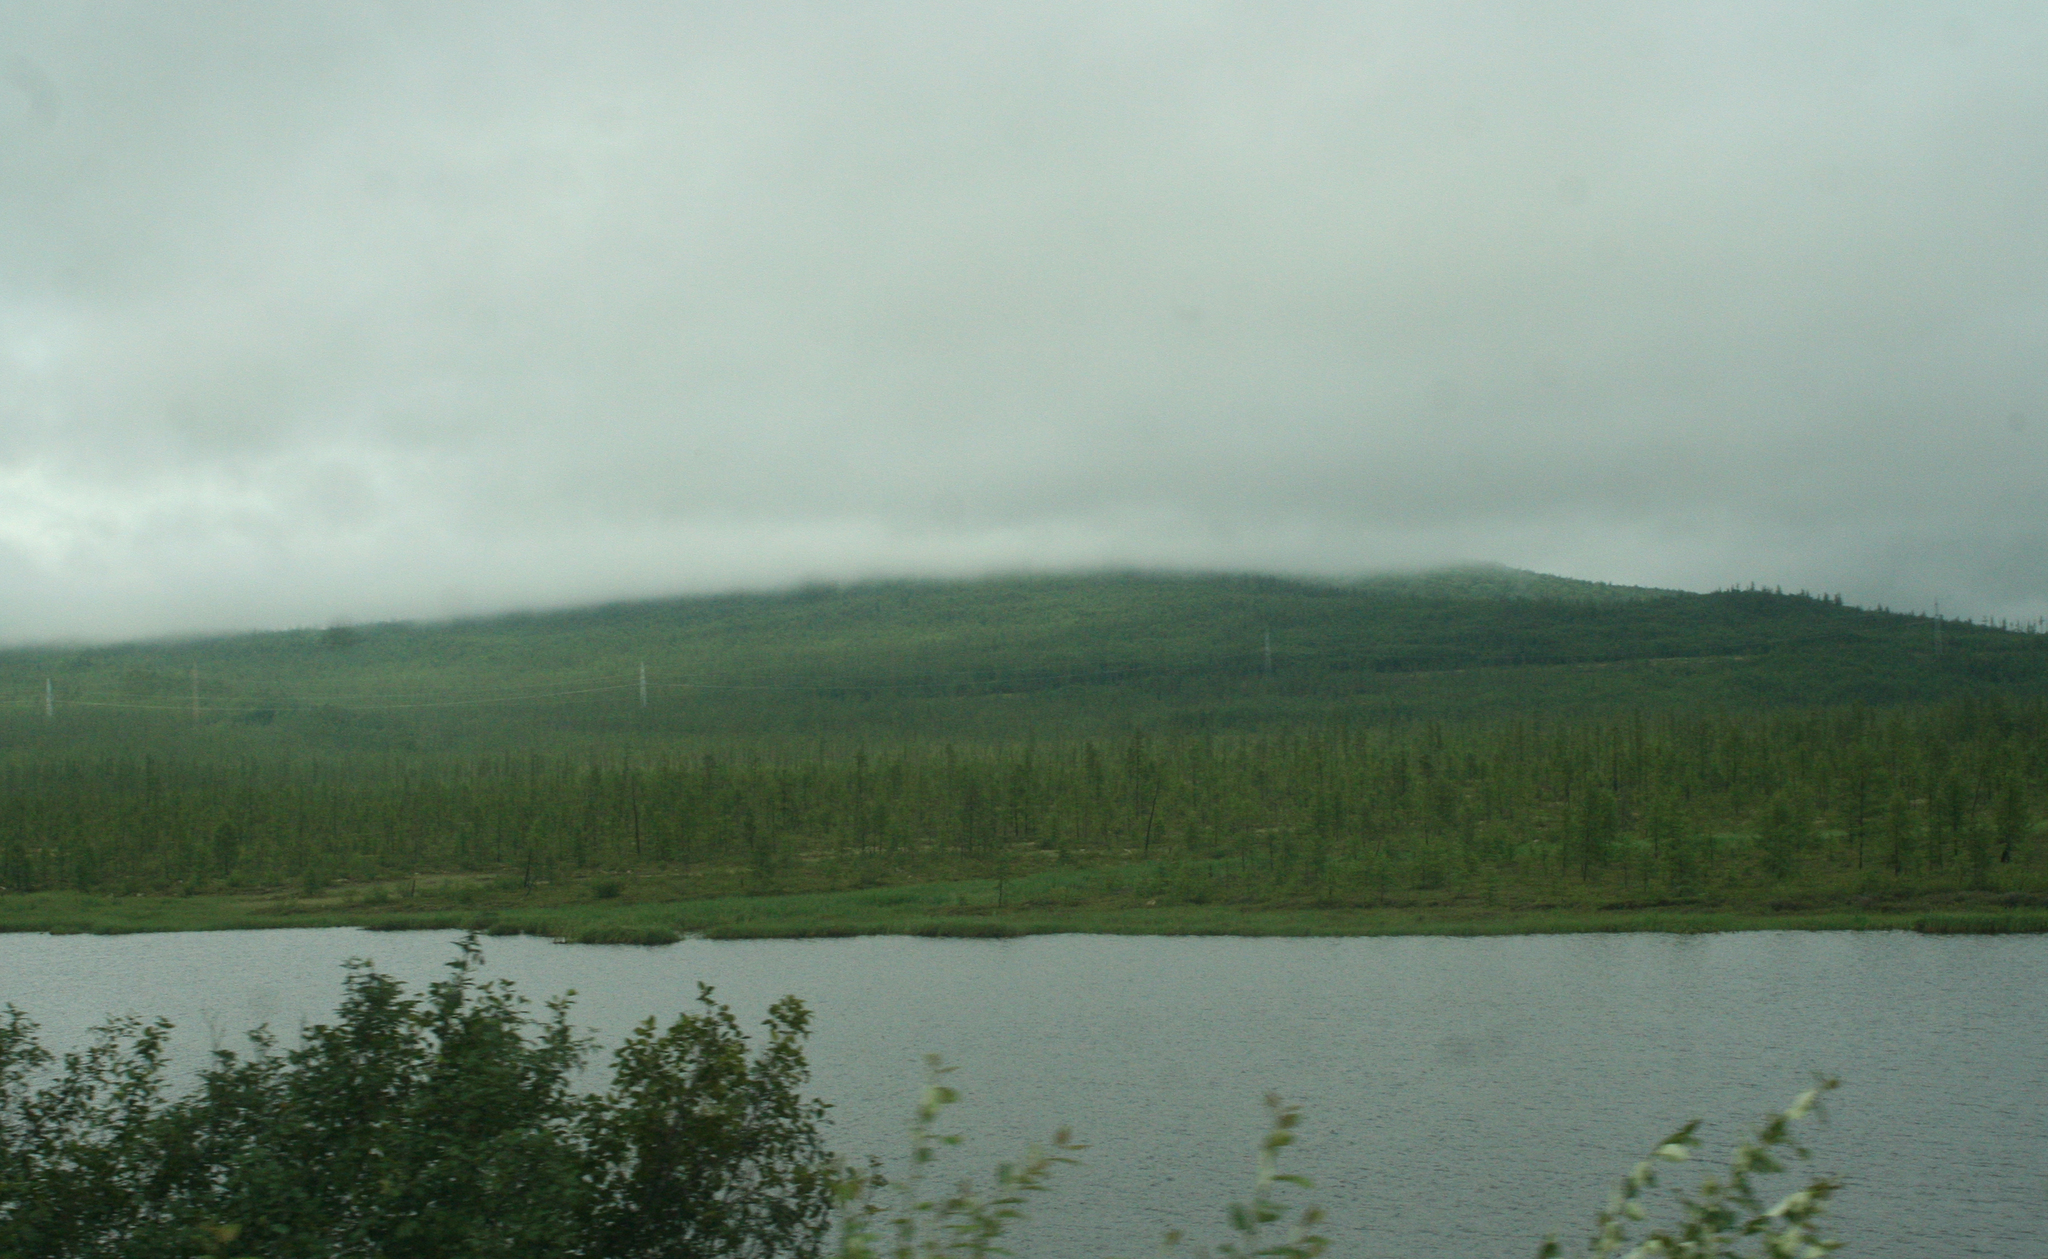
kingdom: Plantae
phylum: Tracheophyta
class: Pinopsida
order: Pinales
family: Pinaceae
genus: Larix
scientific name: Larix gmelinii
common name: Dahurian larch
